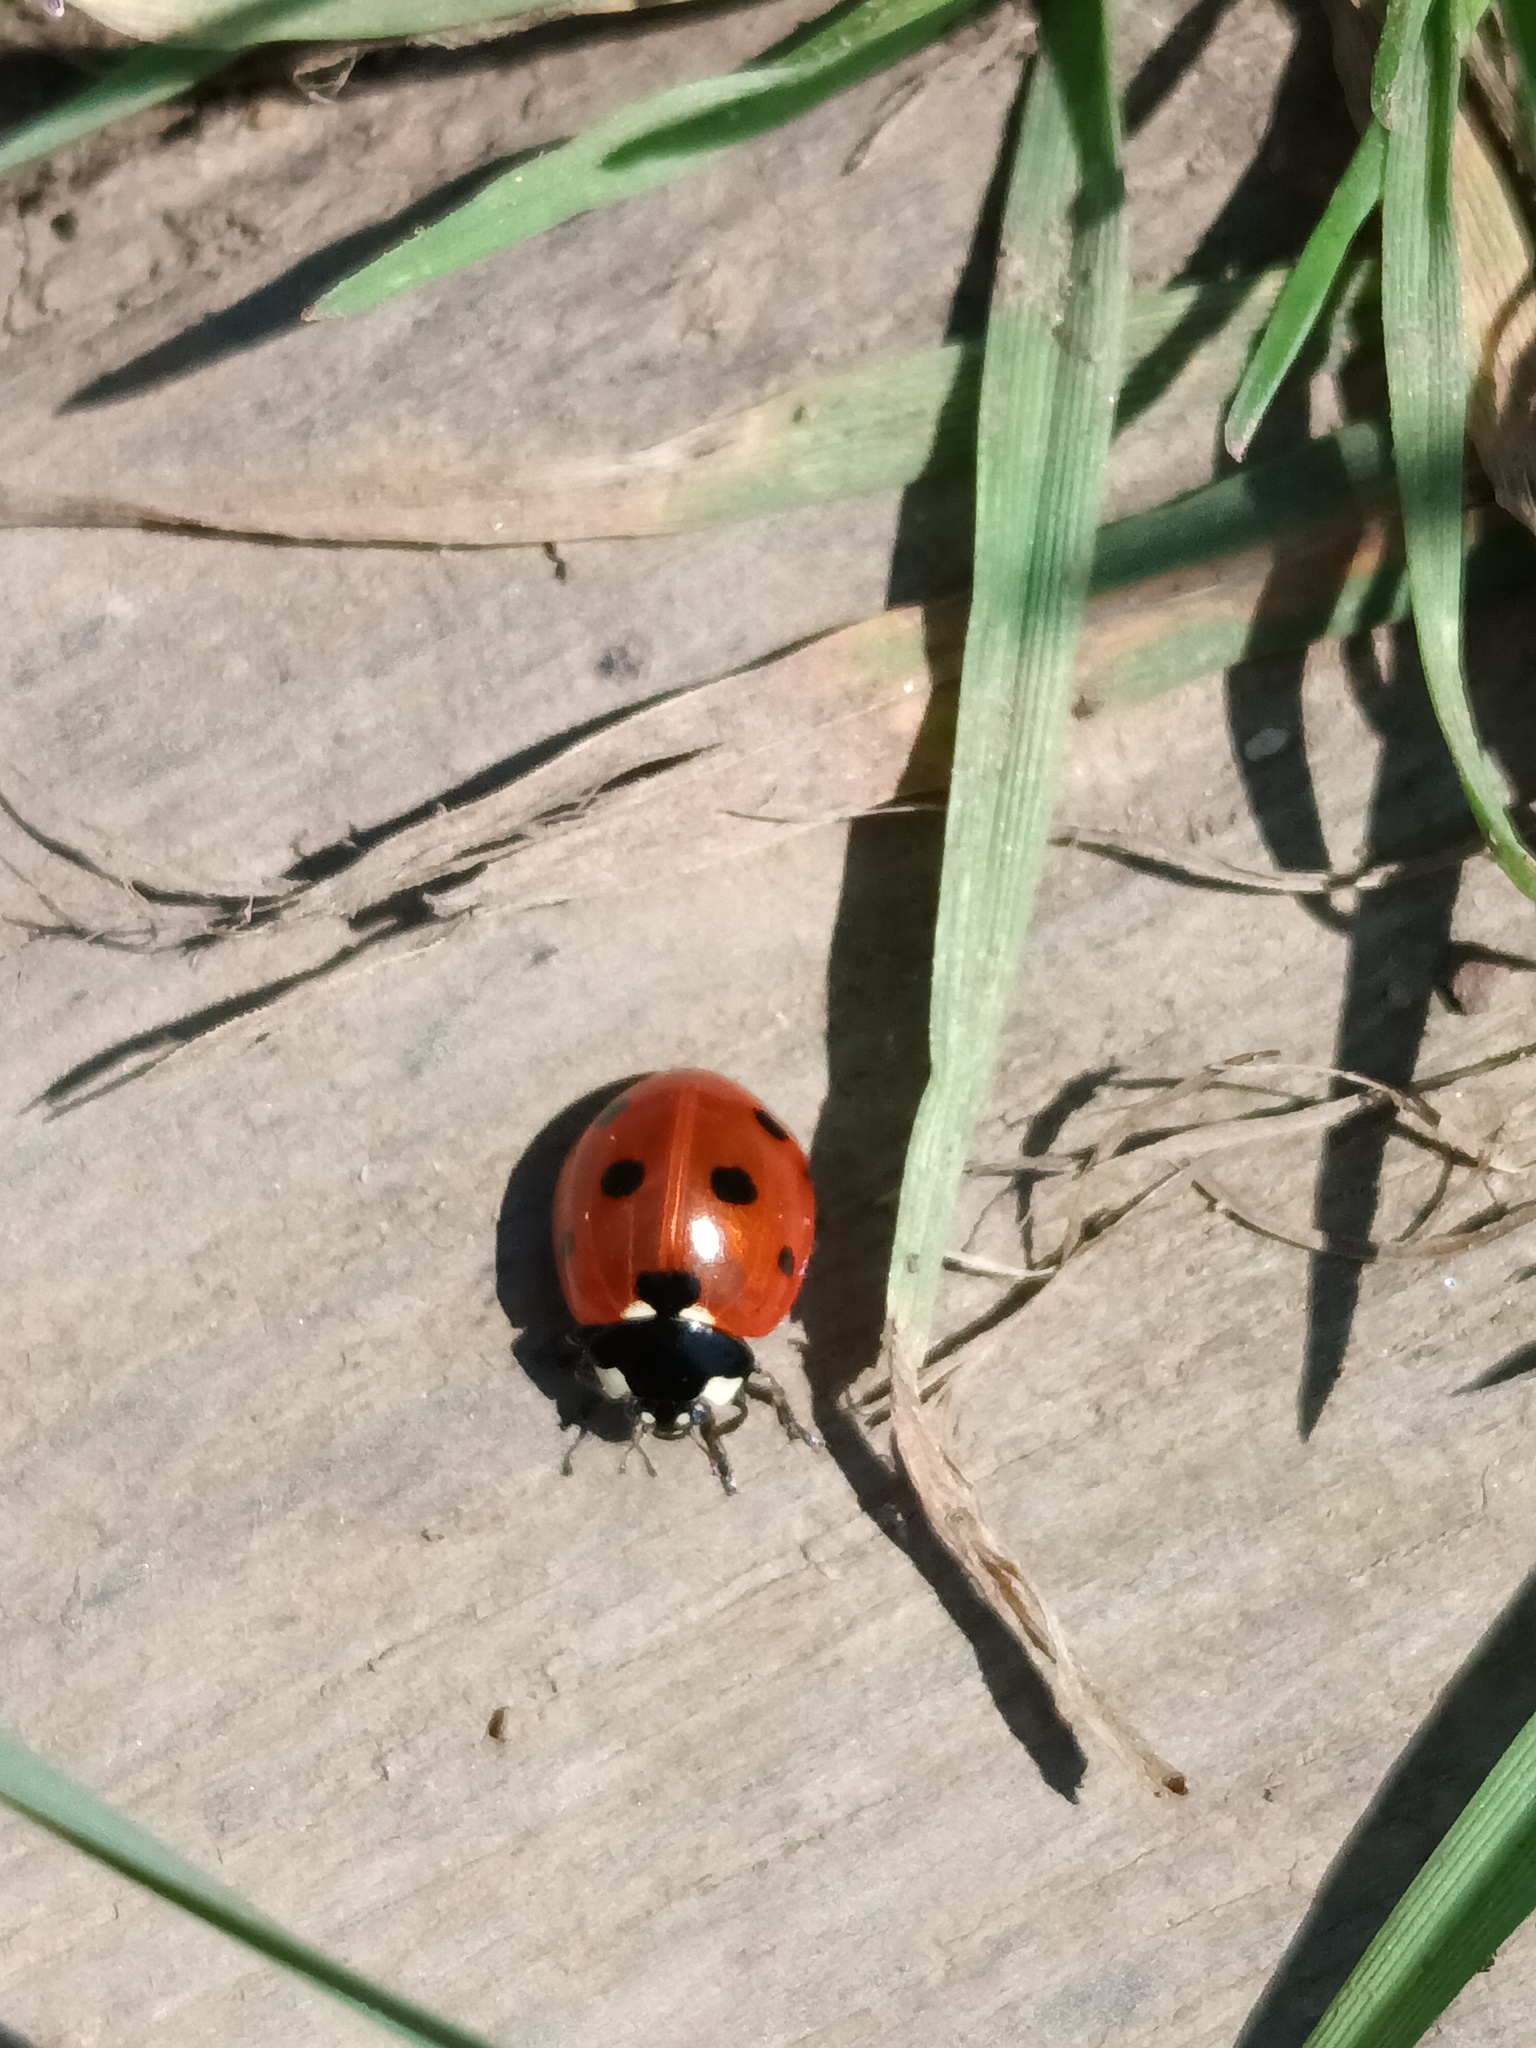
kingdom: Animalia
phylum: Arthropoda
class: Insecta
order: Coleoptera
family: Coccinellidae
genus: Coccinella
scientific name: Coccinella septempunctata
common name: Sevenspotted lady beetle
